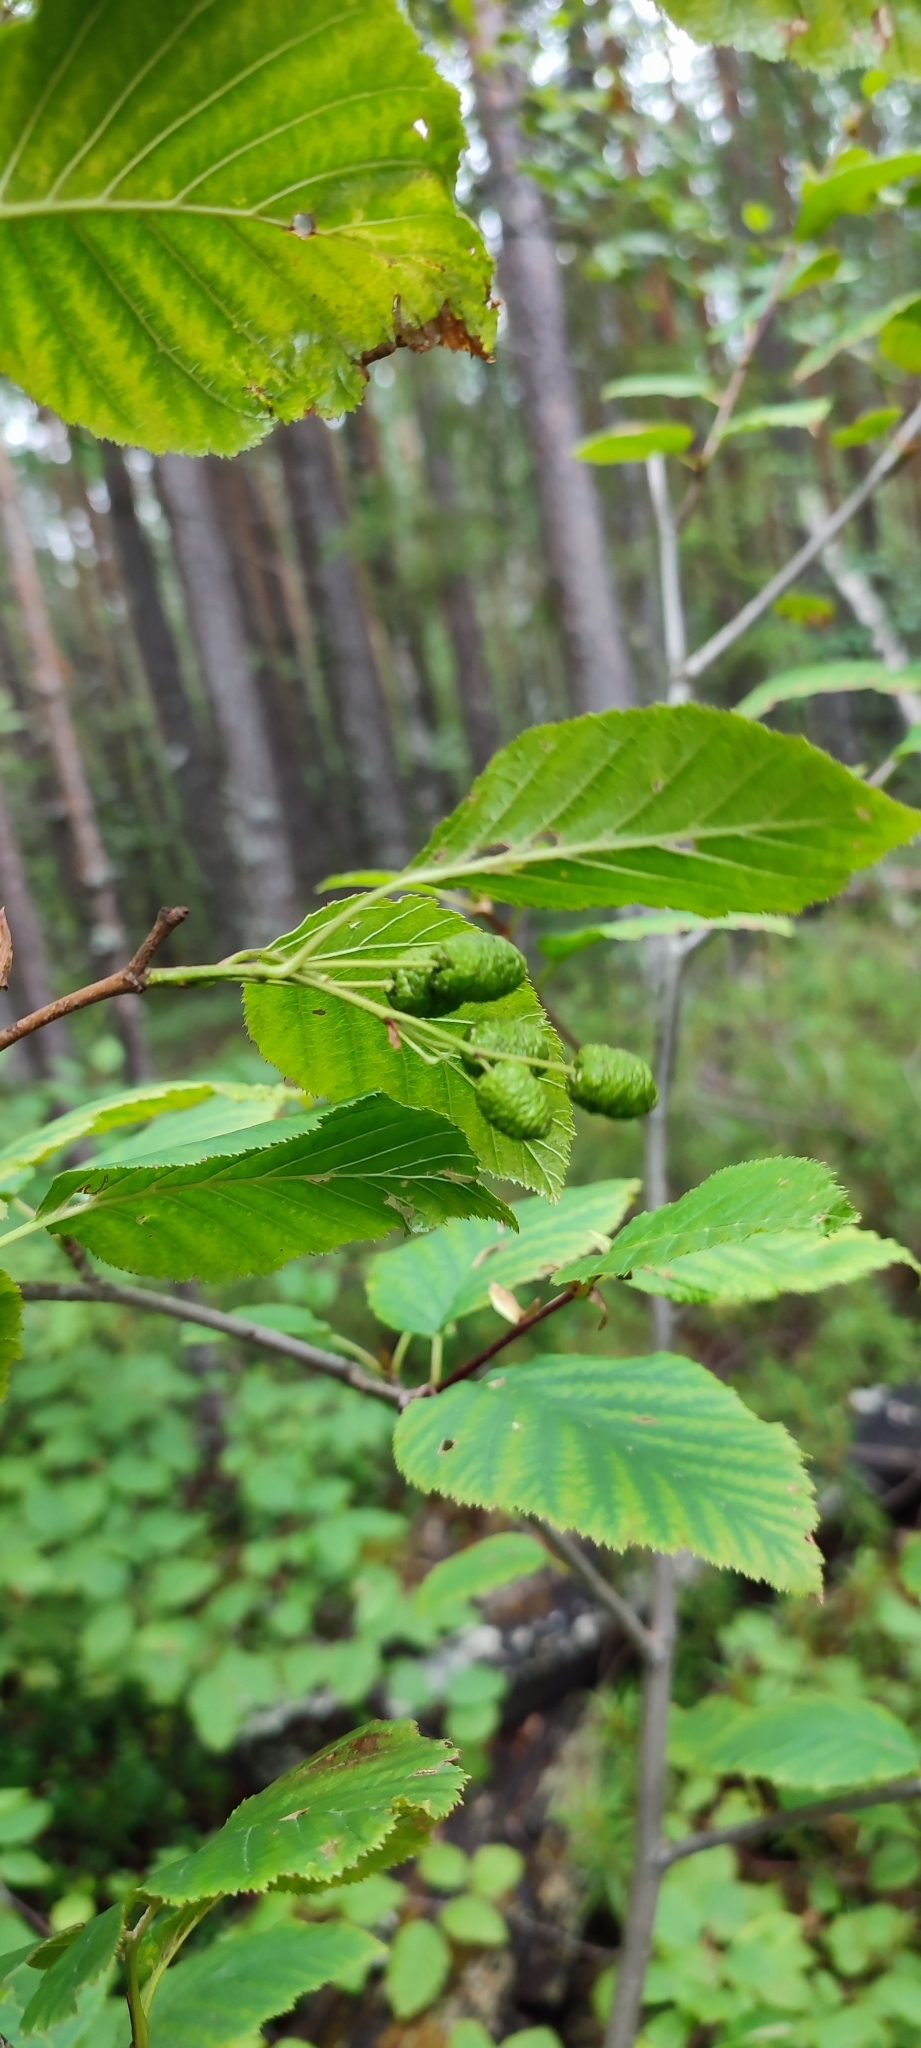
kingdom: Plantae
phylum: Tracheophyta
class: Magnoliopsida
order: Fagales
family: Betulaceae
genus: Alnus
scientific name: Alnus alnobetula
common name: Green alder
